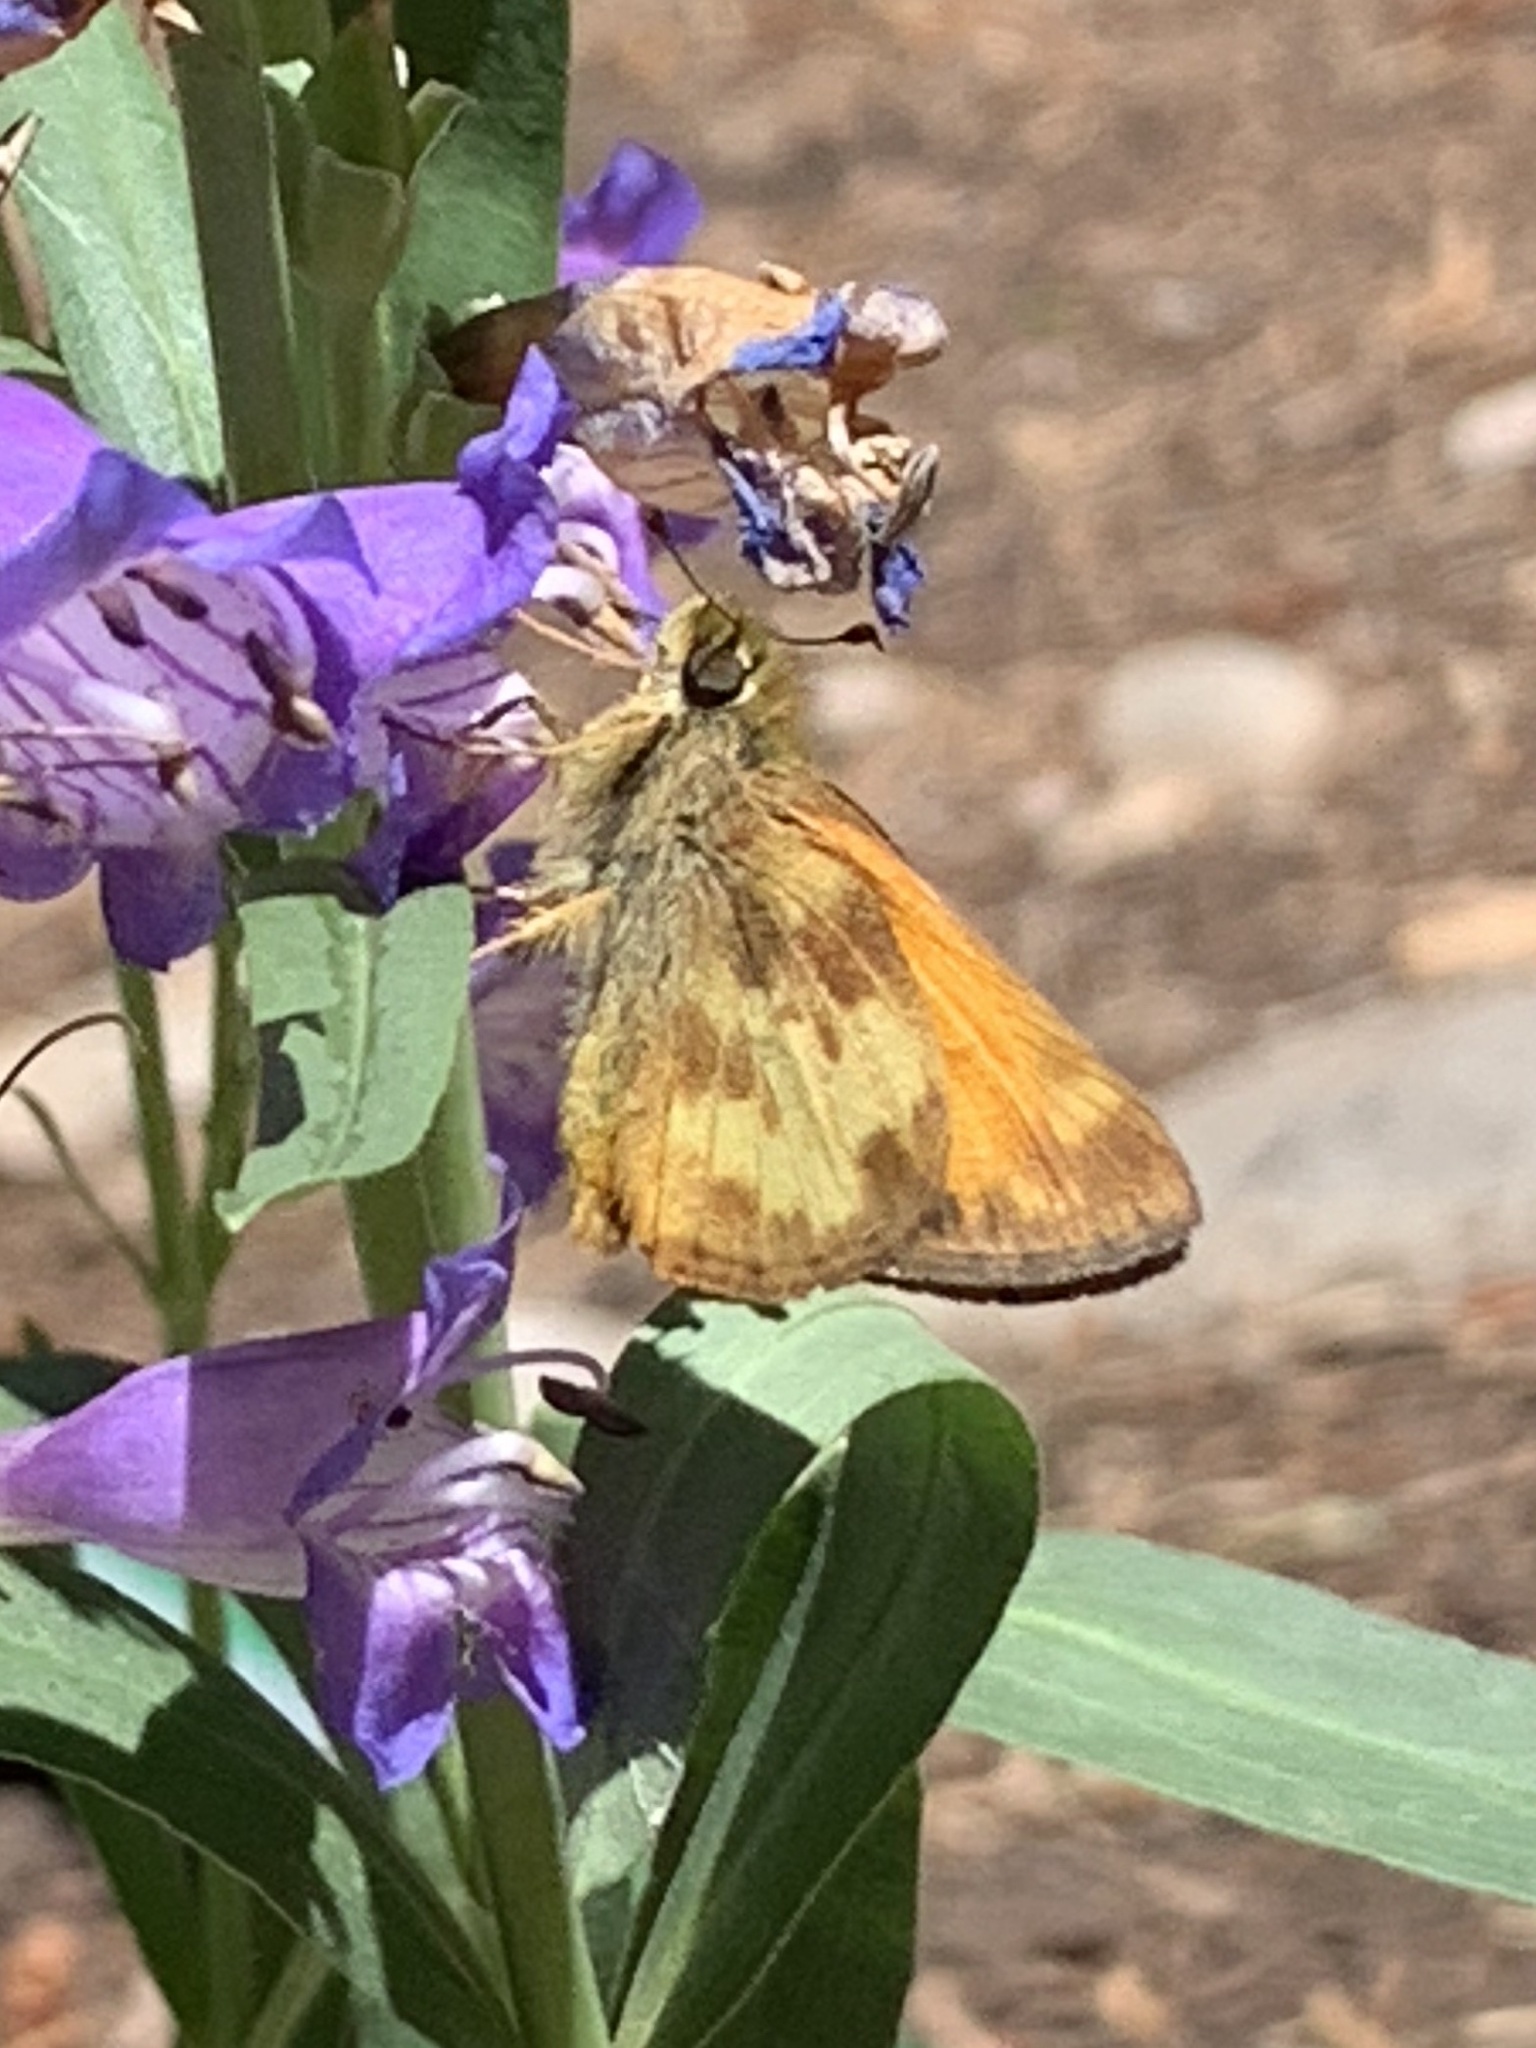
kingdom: Animalia
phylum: Arthropoda
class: Insecta
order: Lepidoptera
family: Hesperiidae
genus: Lon
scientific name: Lon taxiles
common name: Taxiles skipper
